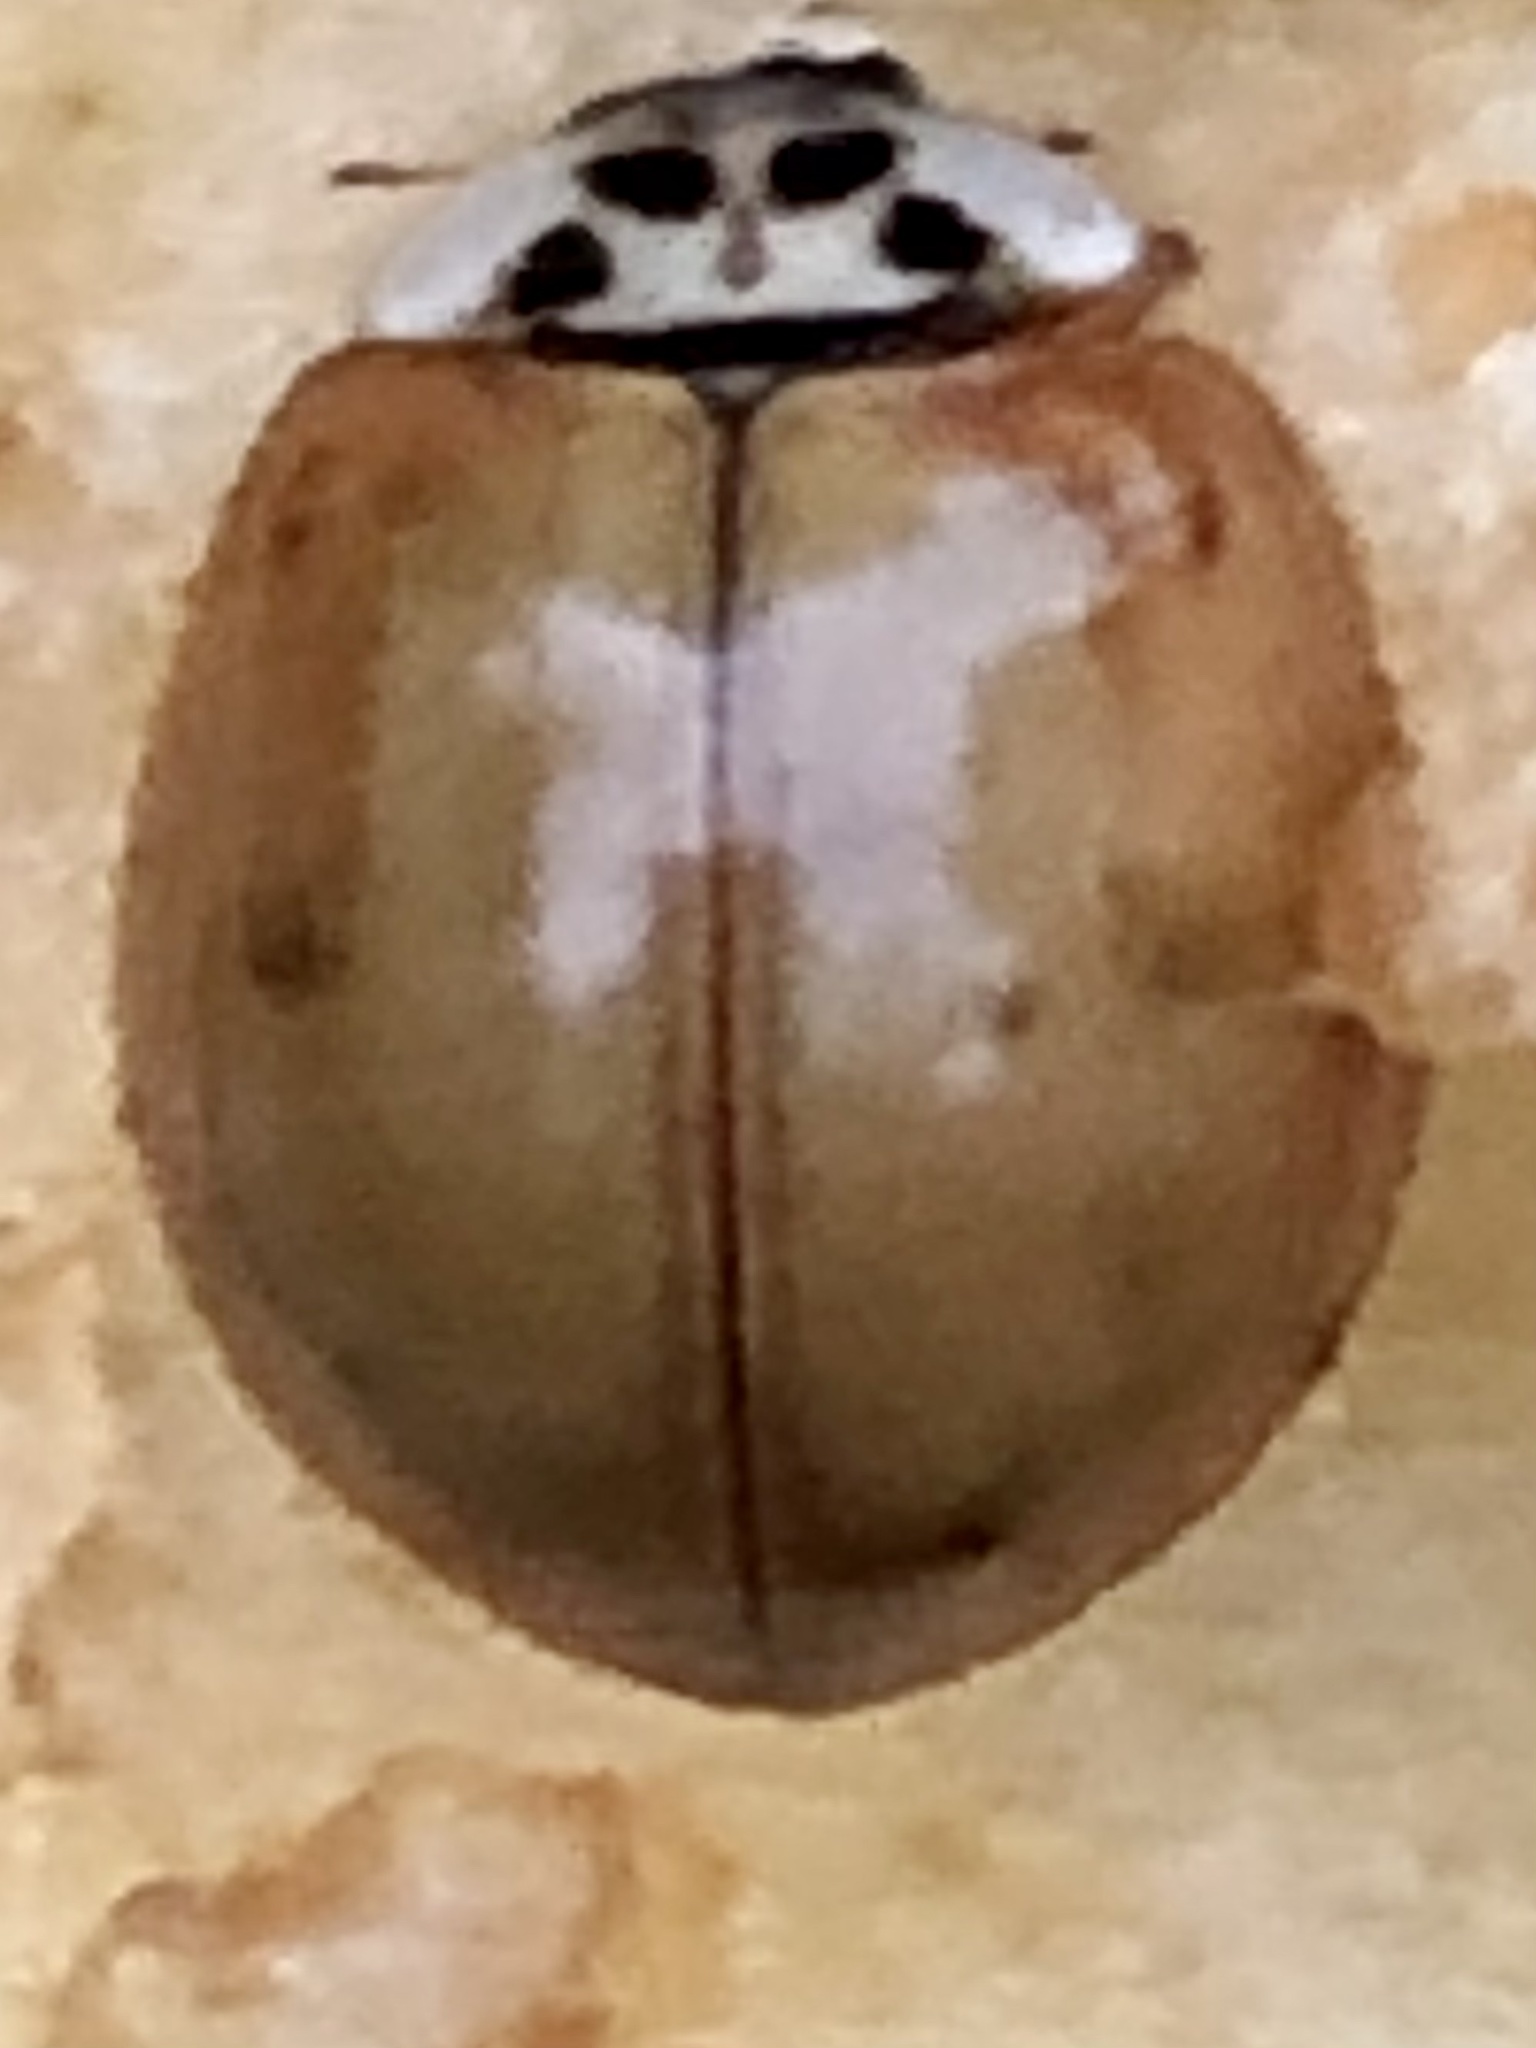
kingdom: Animalia
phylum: Arthropoda
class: Insecta
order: Coleoptera
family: Coccinellidae
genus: Harmonia
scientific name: Harmonia axyridis
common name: Harlequin ladybird
